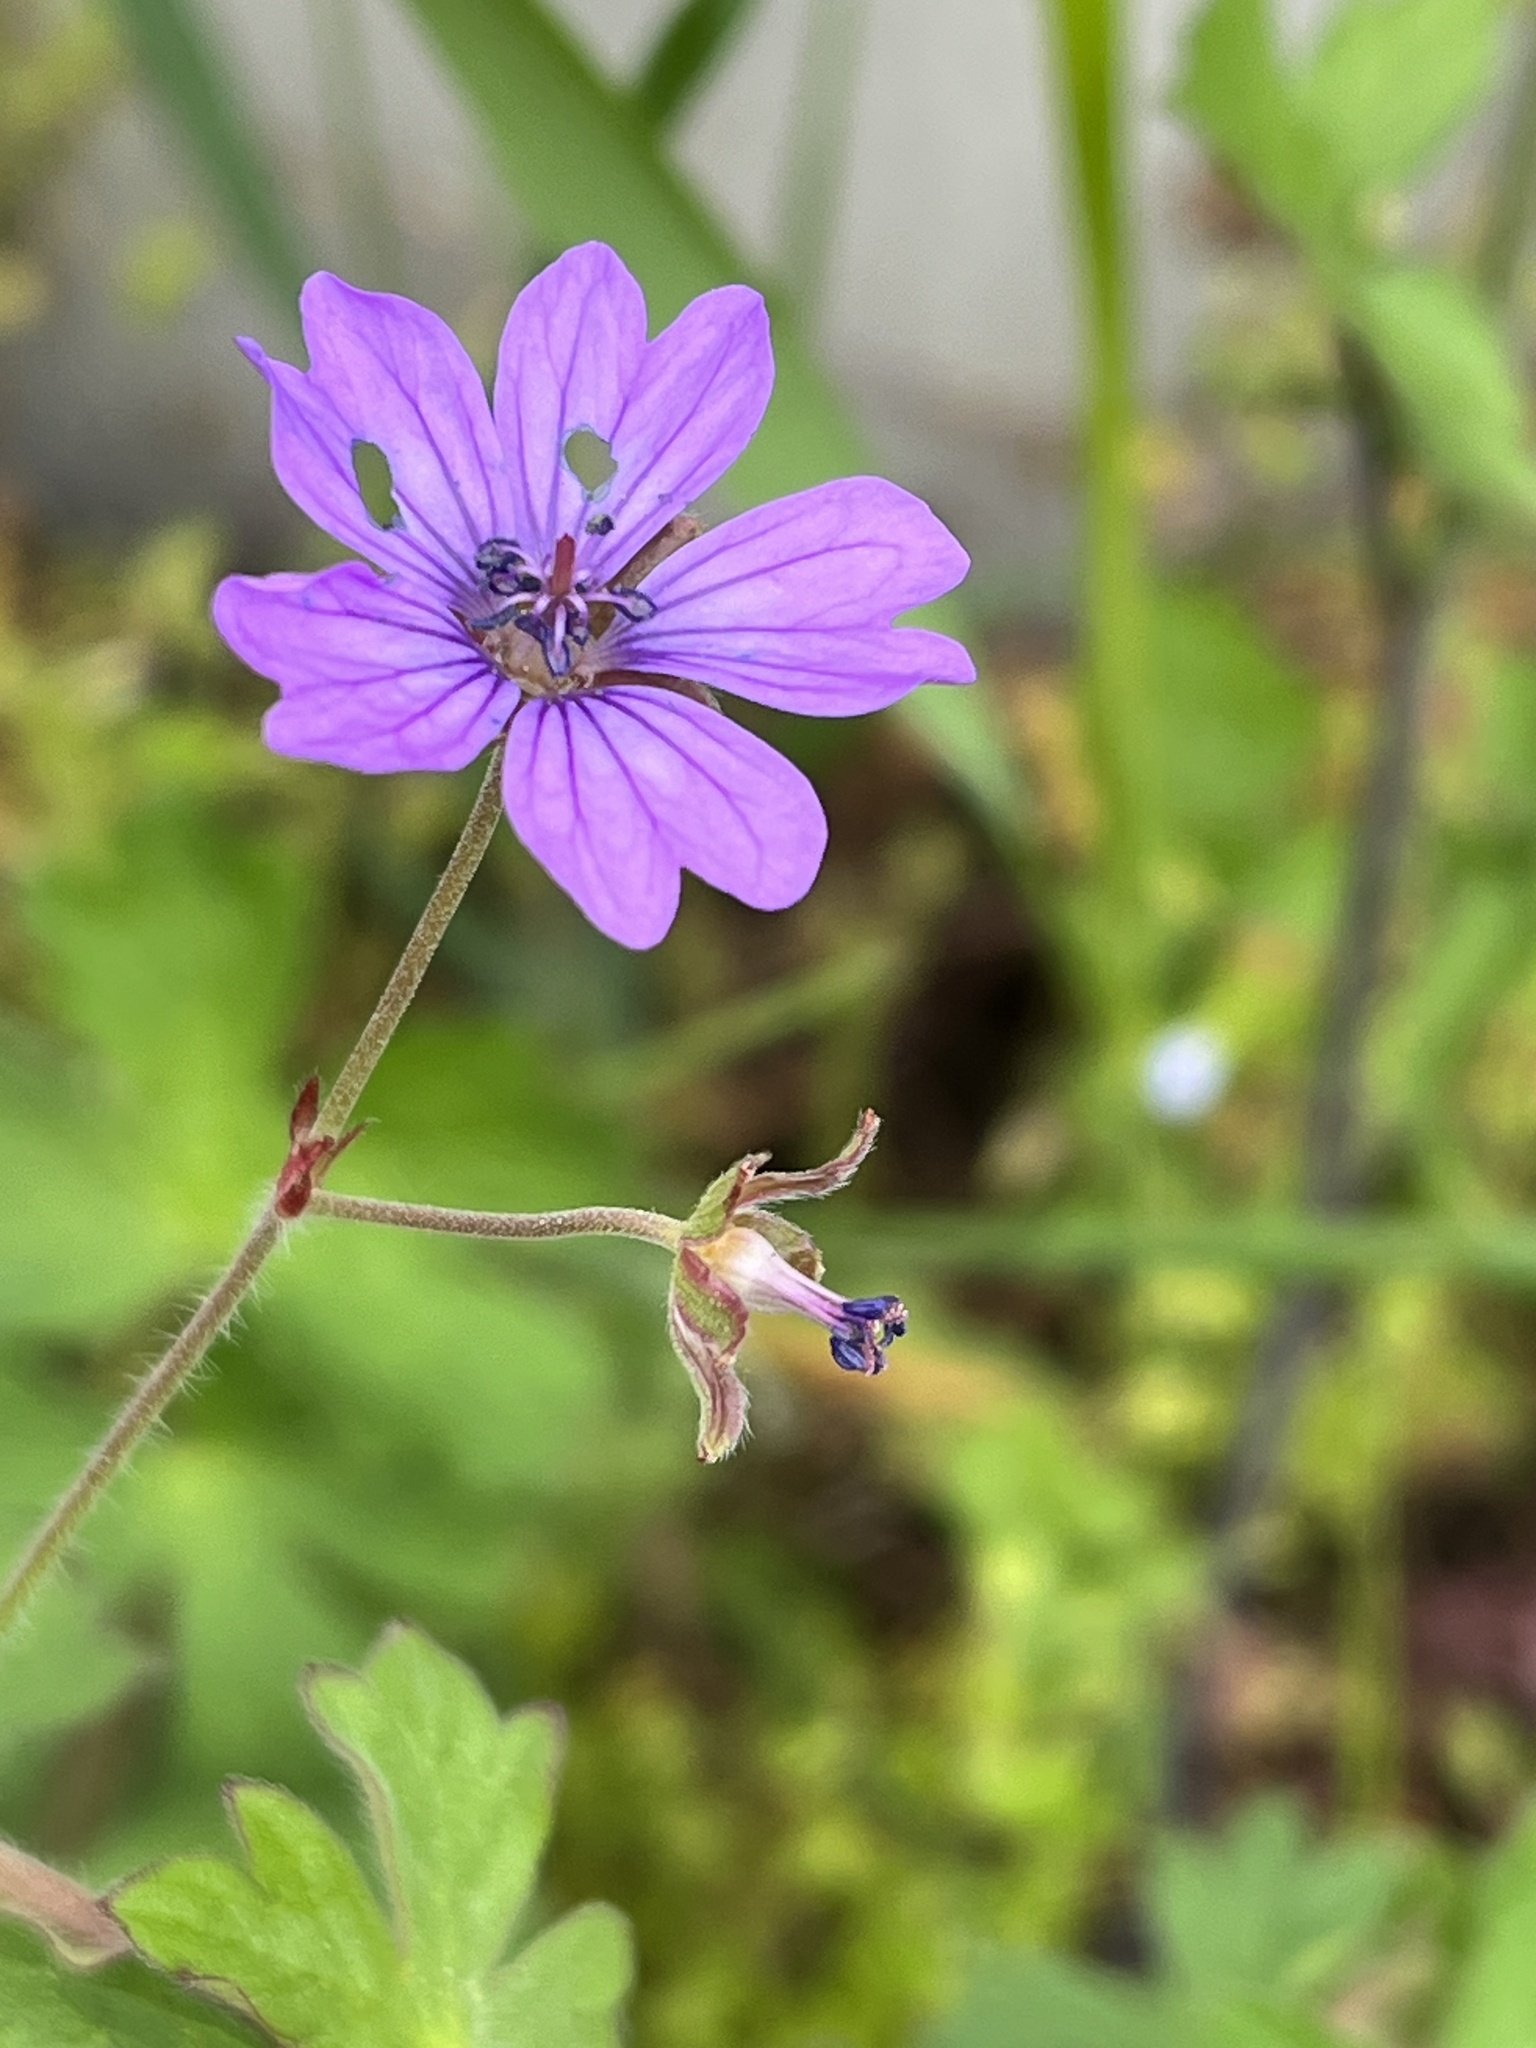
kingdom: Plantae
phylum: Tracheophyta
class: Magnoliopsida
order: Geraniales
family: Geraniaceae
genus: Geranium
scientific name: Geranium pyrenaicum
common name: Hedgerow crane's-bill
